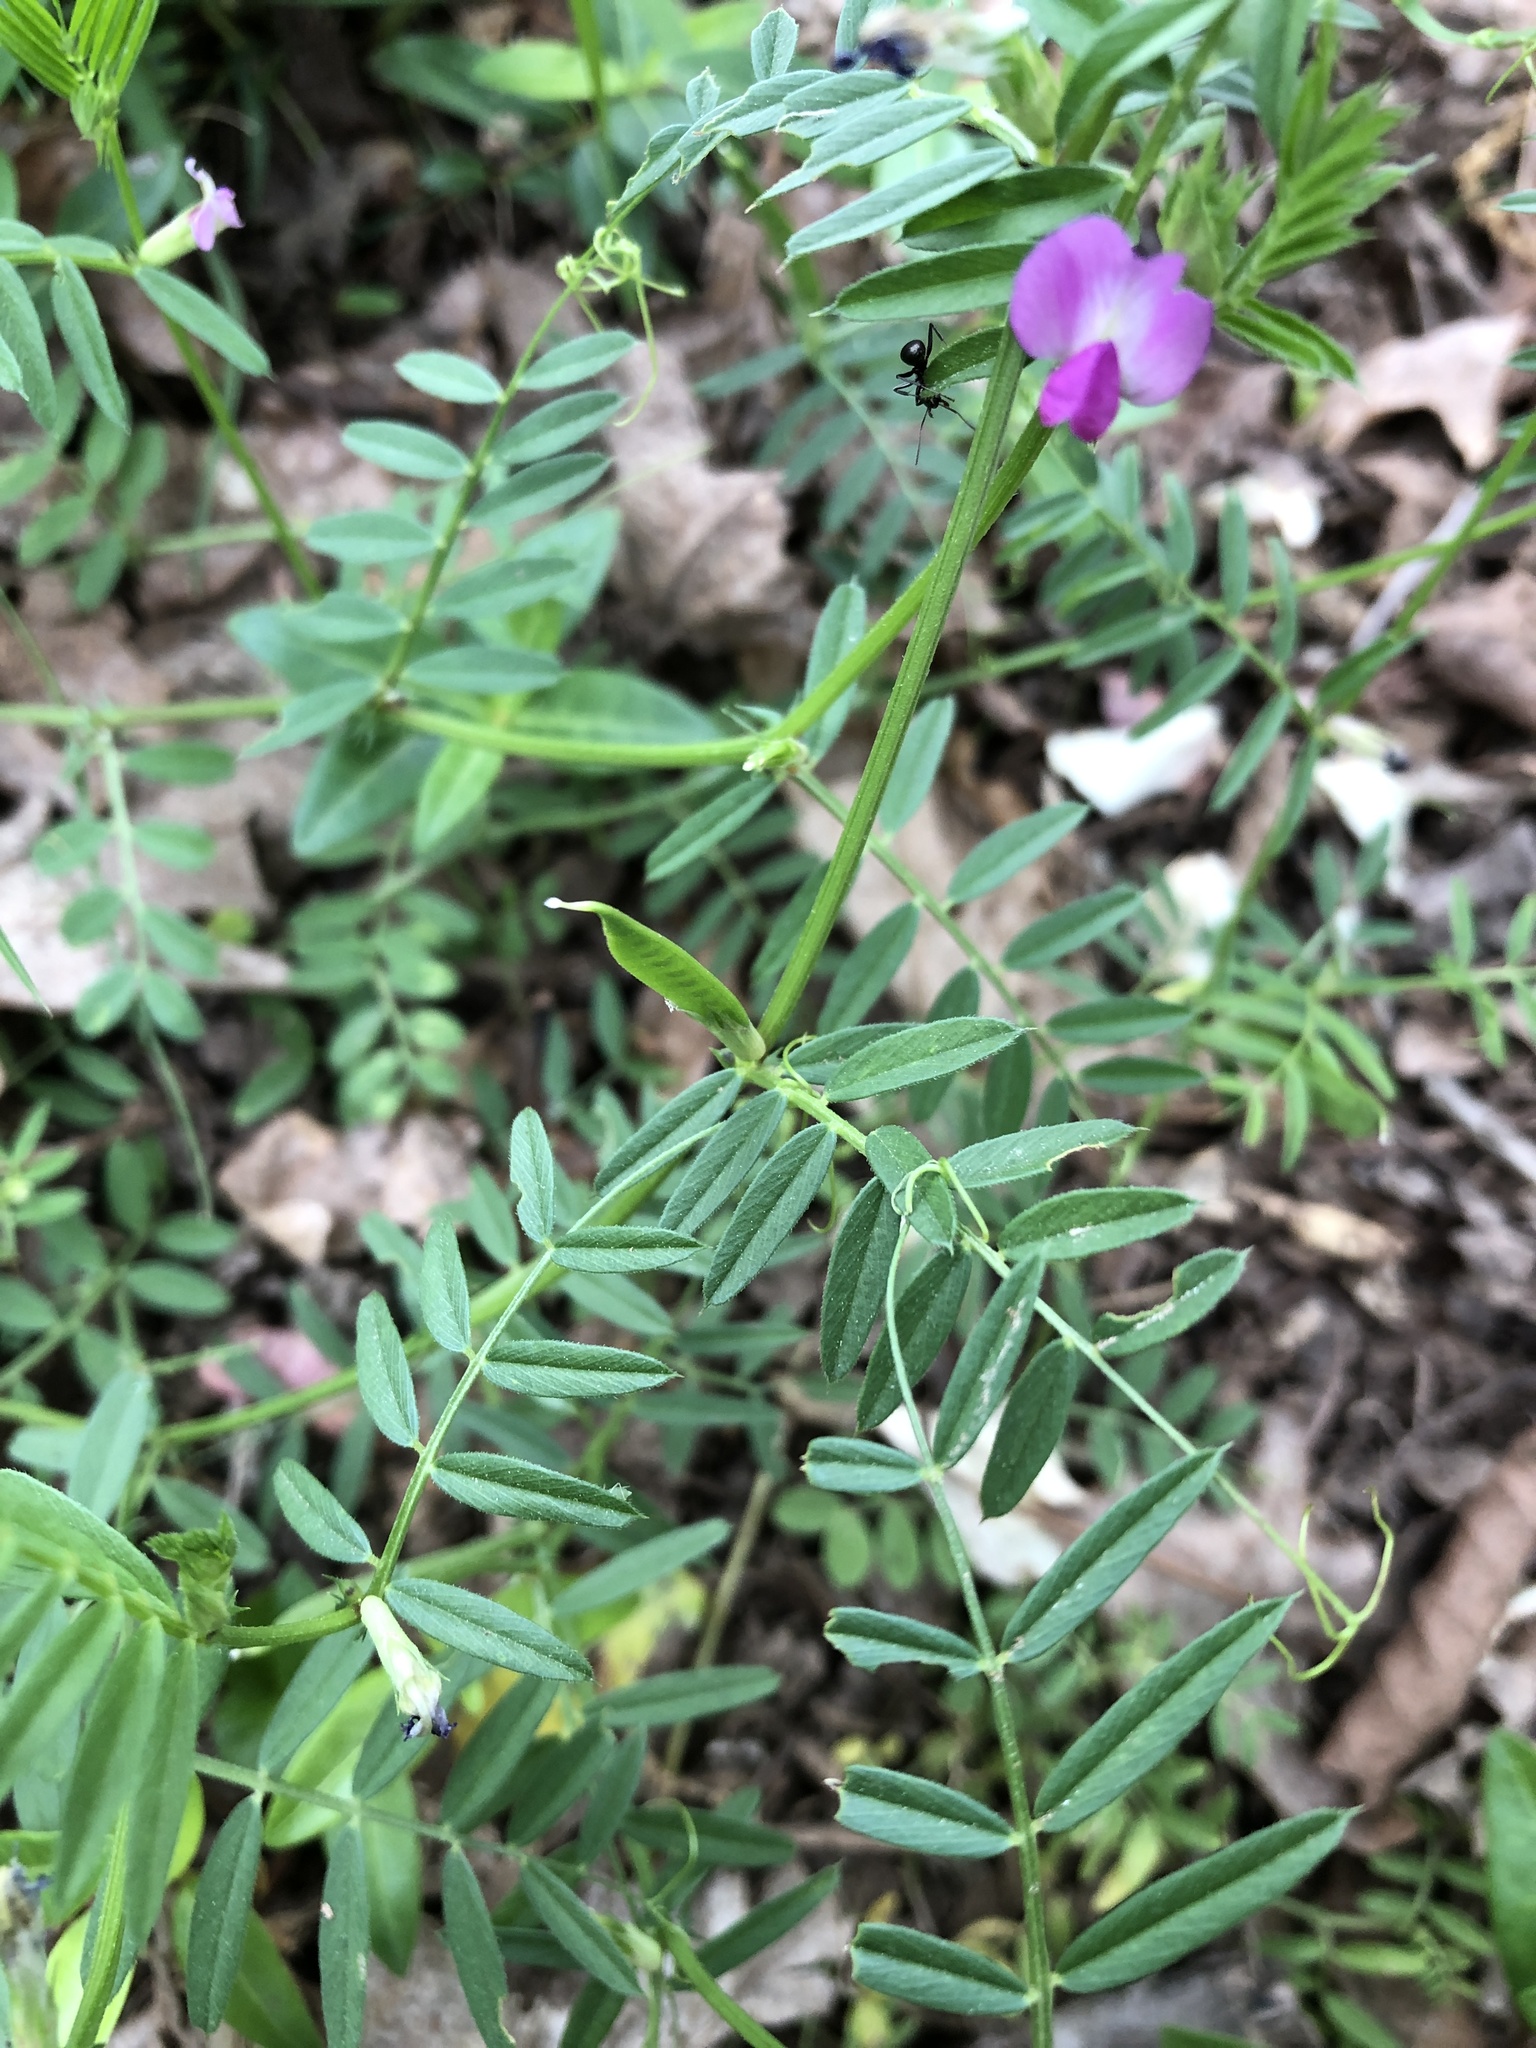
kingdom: Plantae
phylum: Tracheophyta
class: Magnoliopsida
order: Fabales
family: Fabaceae
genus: Vicia
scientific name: Vicia sativa
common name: Garden vetch
